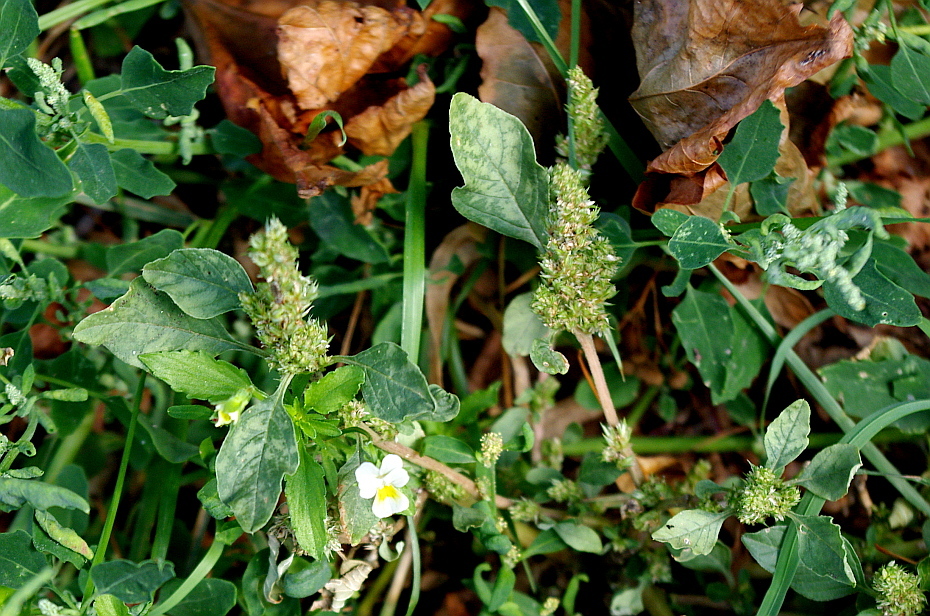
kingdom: Plantae
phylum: Tracheophyta
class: Magnoliopsida
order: Caryophyllales
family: Amaranthaceae
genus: Amaranthus
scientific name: Amaranthus retroflexus
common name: Redroot amaranth
